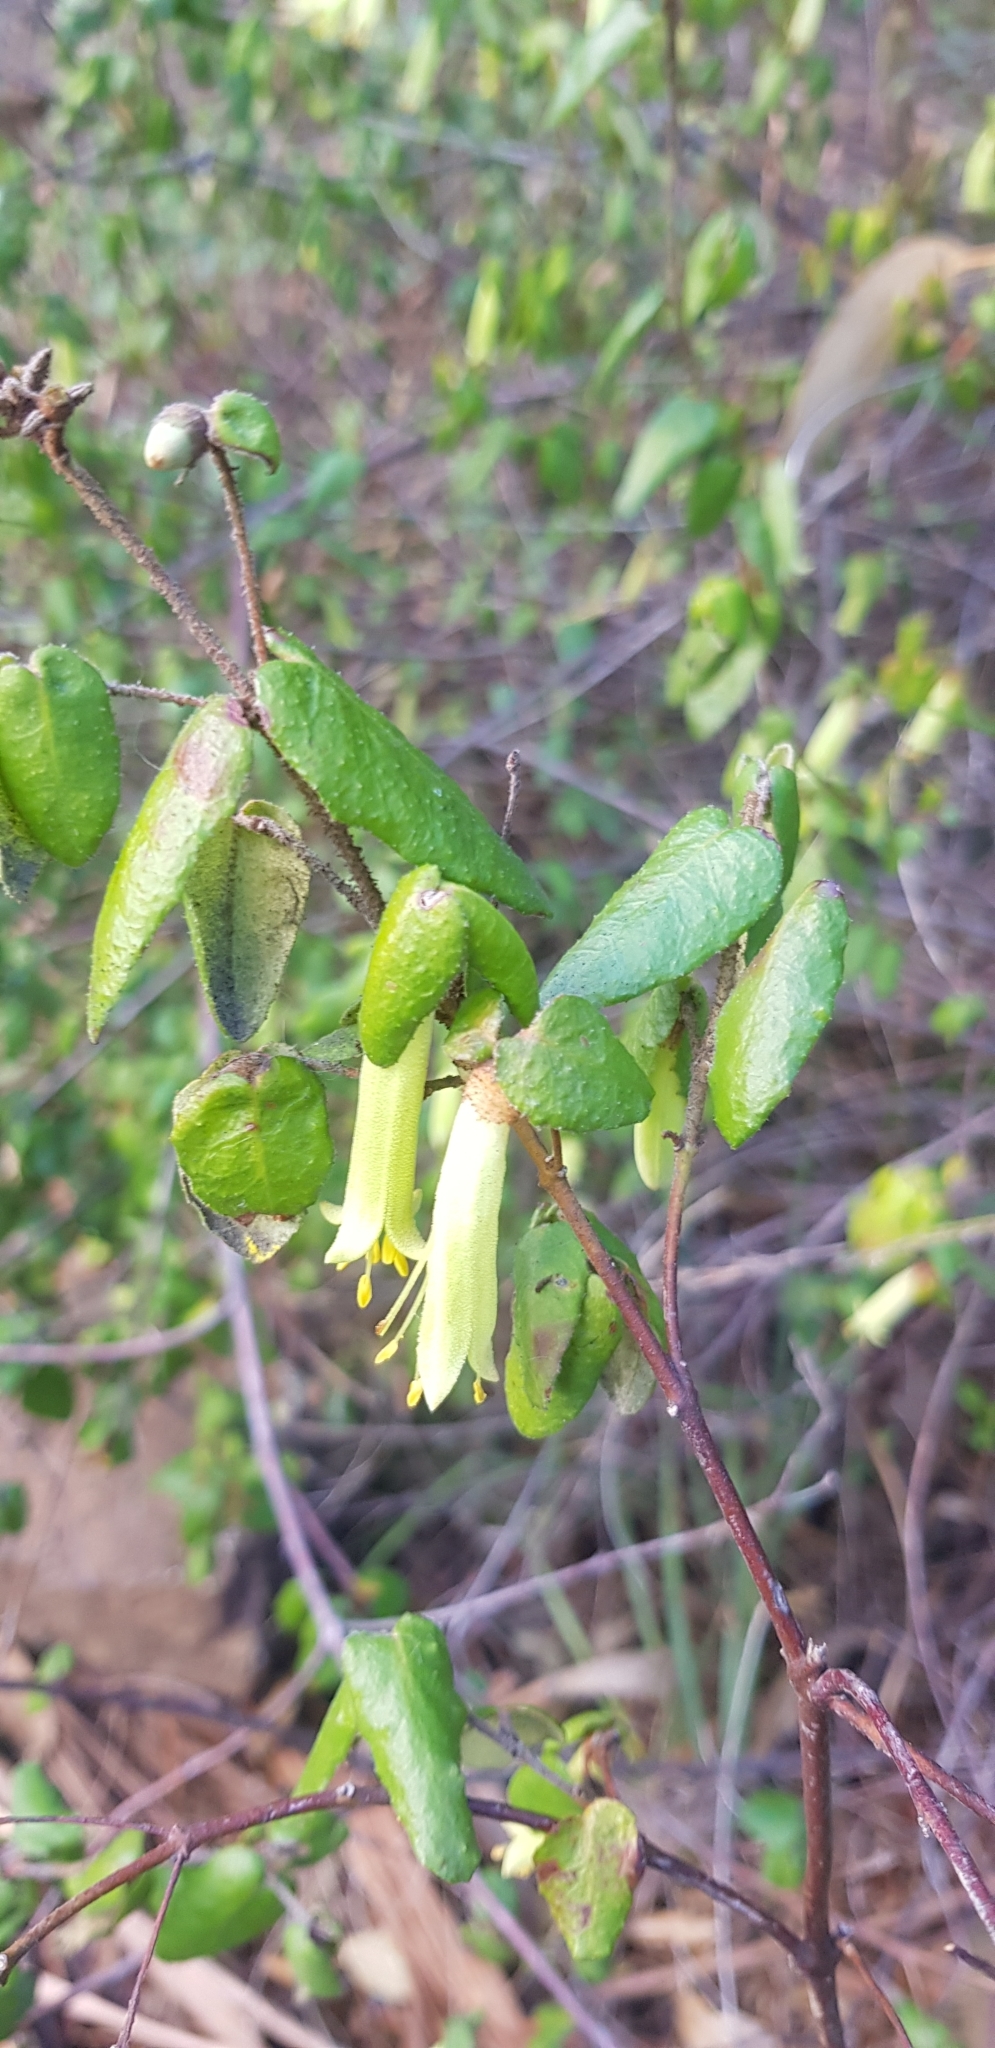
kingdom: Plantae
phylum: Tracheophyta
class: Magnoliopsida
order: Sapindales
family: Rutaceae
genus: Correa
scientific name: Correa reflexa
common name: Common correa
